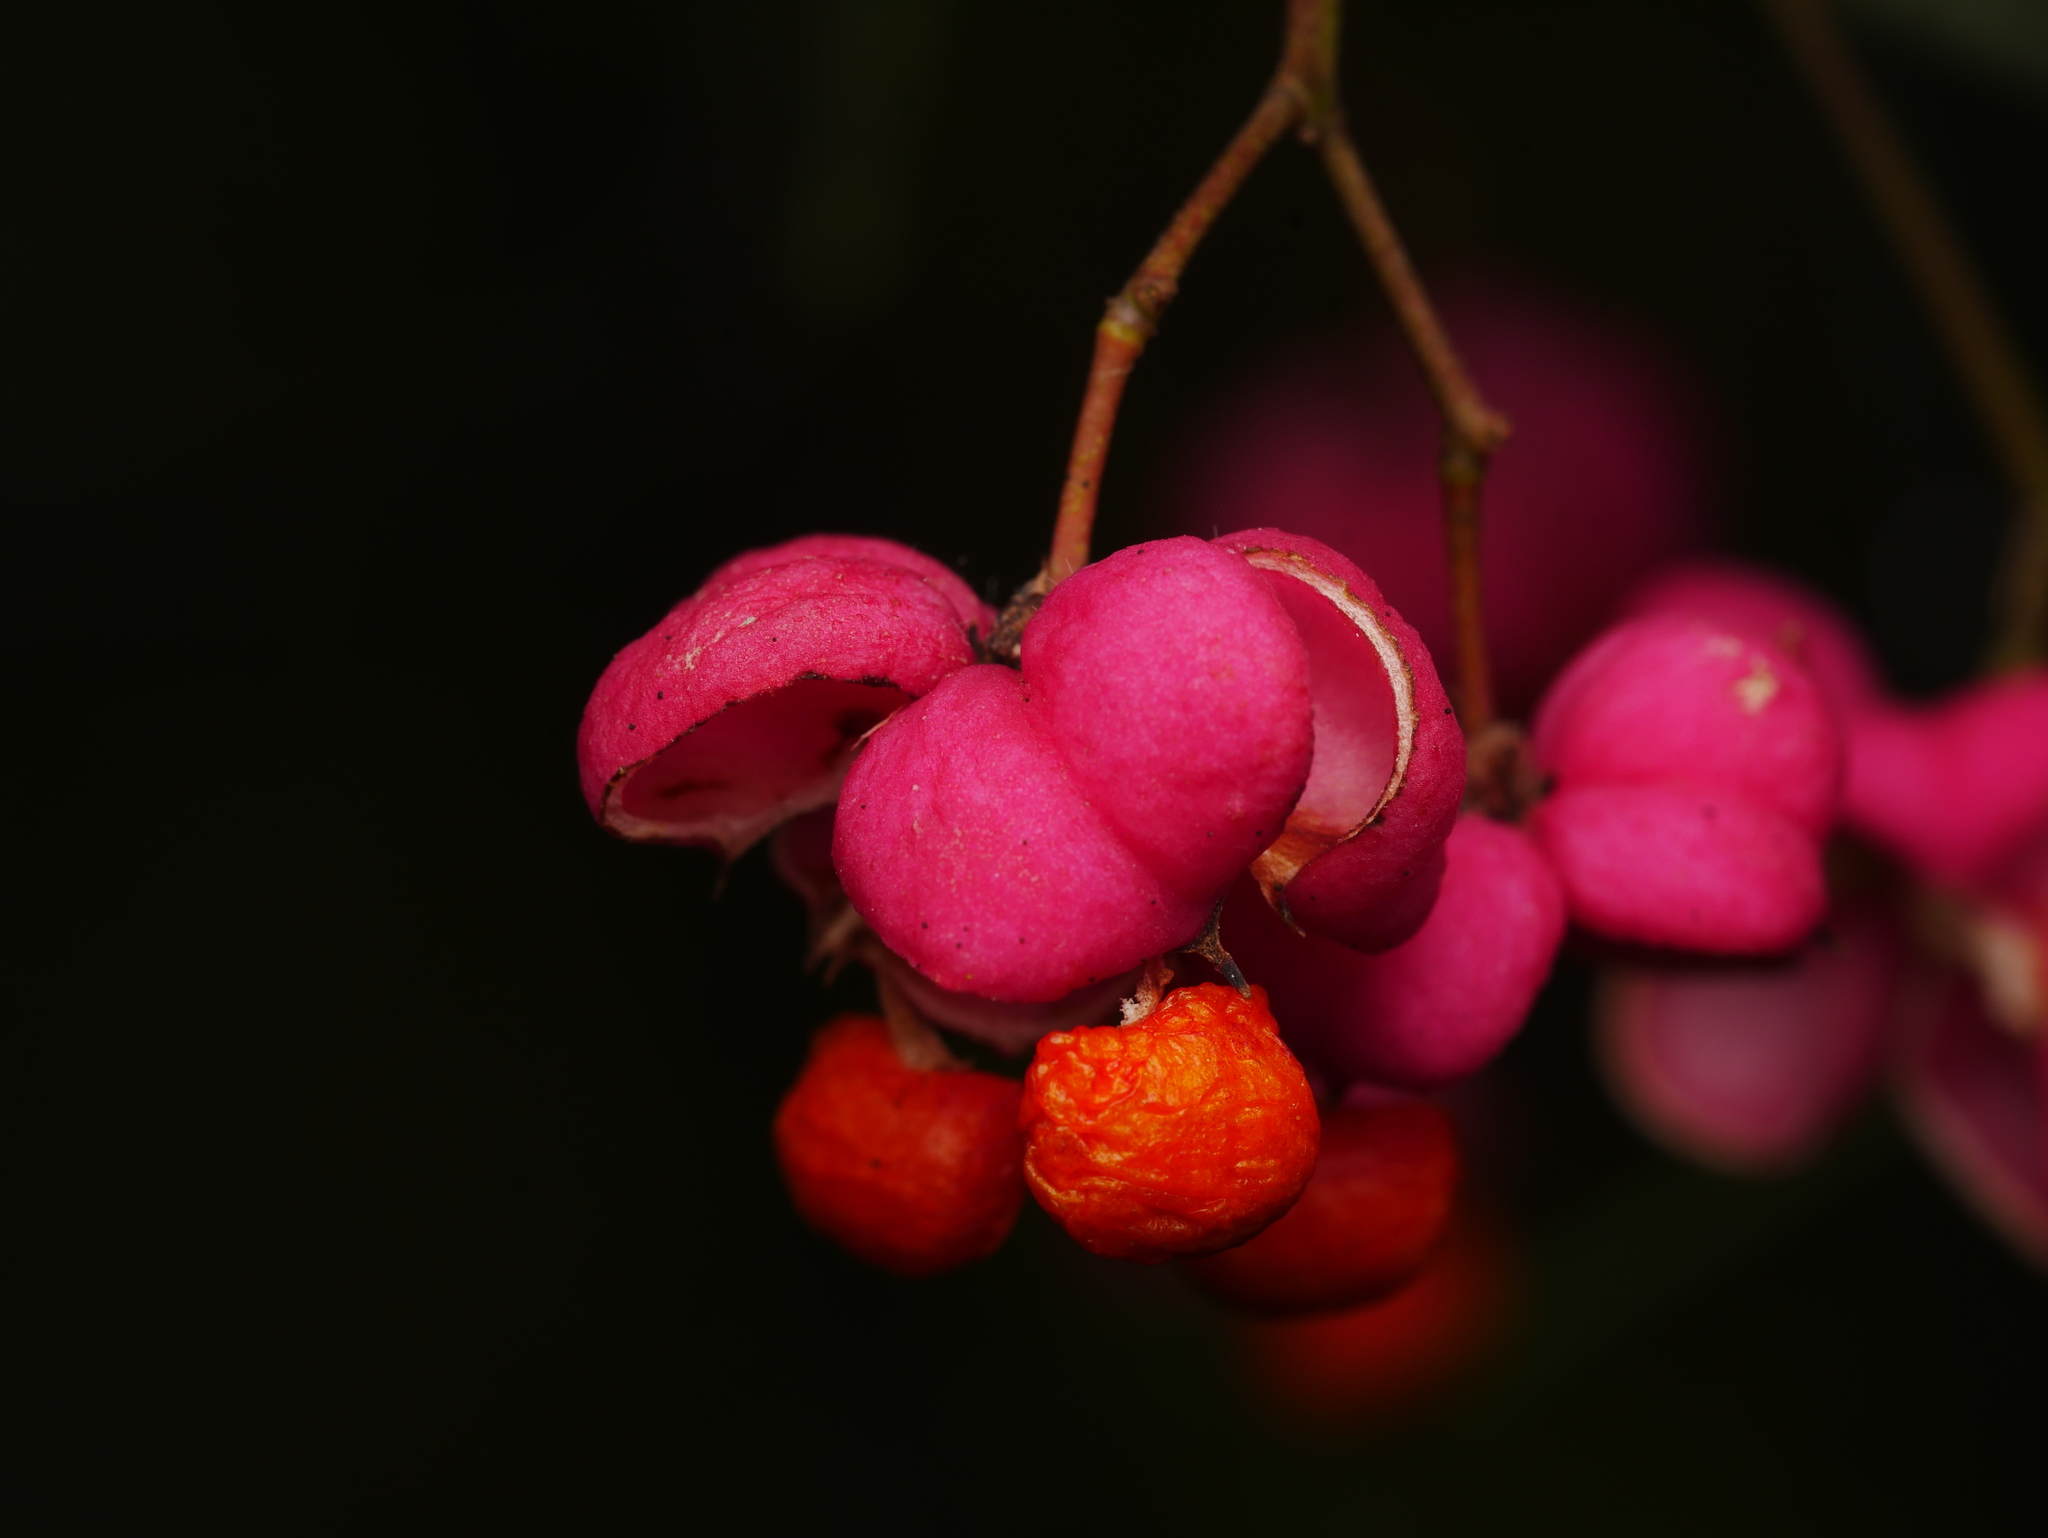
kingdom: Plantae
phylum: Tracheophyta
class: Magnoliopsida
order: Celastrales
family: Celastraceae
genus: Euonymus
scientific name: Euonymus europaeus
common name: Spindle
